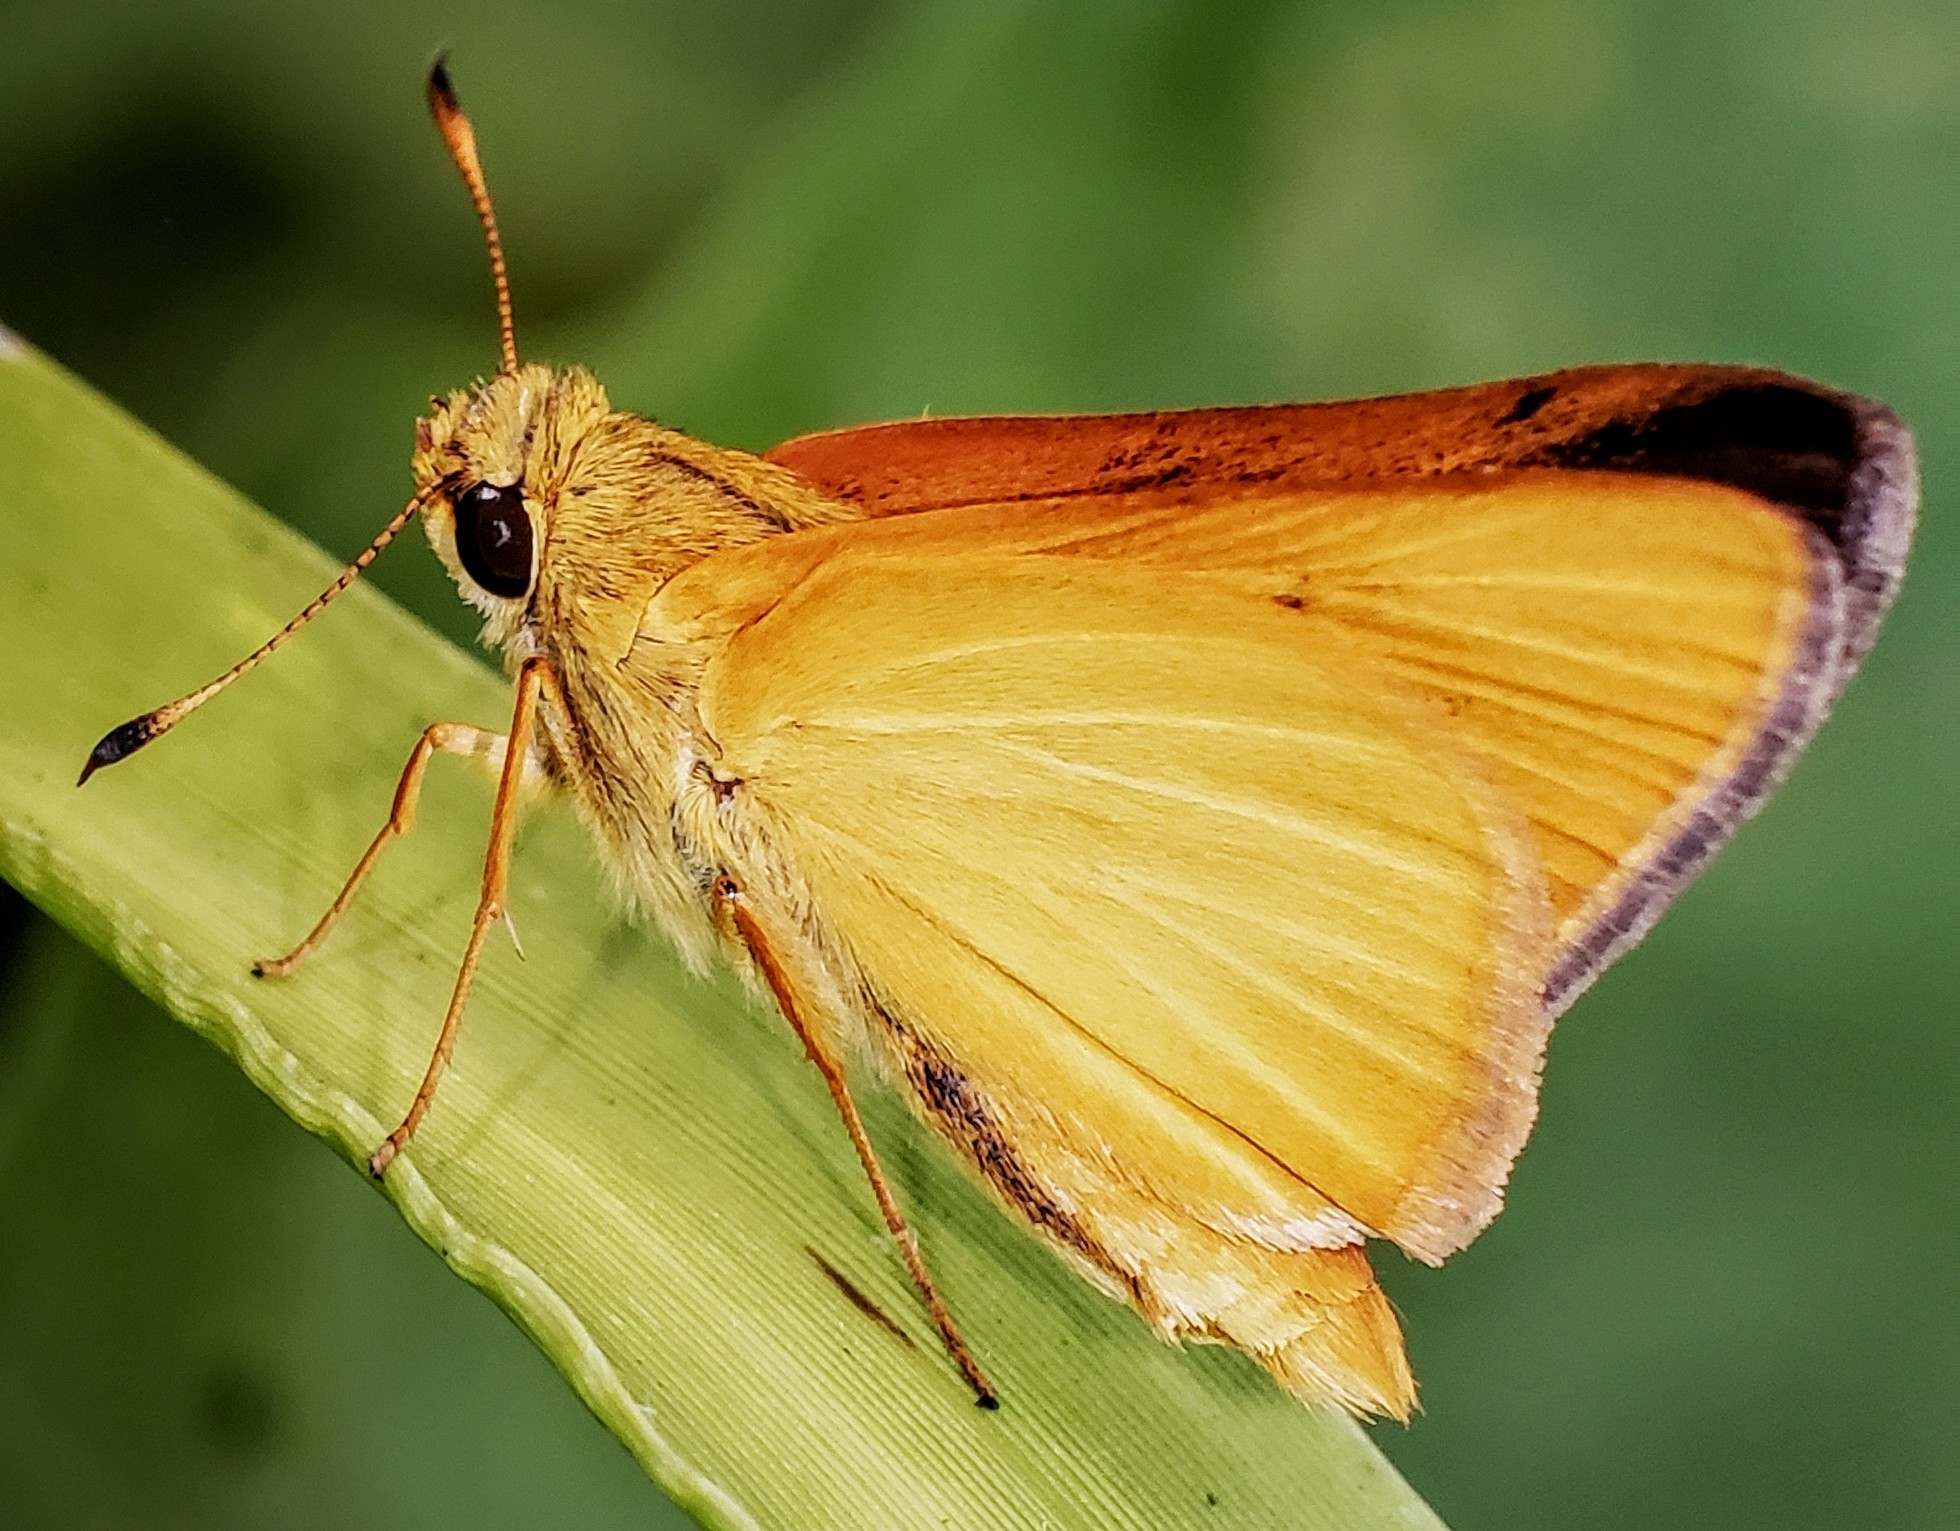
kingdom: Animalia
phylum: Arthropoda
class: Insecta
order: Lepidoptera
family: Hesperiidae
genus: Problema
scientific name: Problema bulenta
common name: Rare skipper
